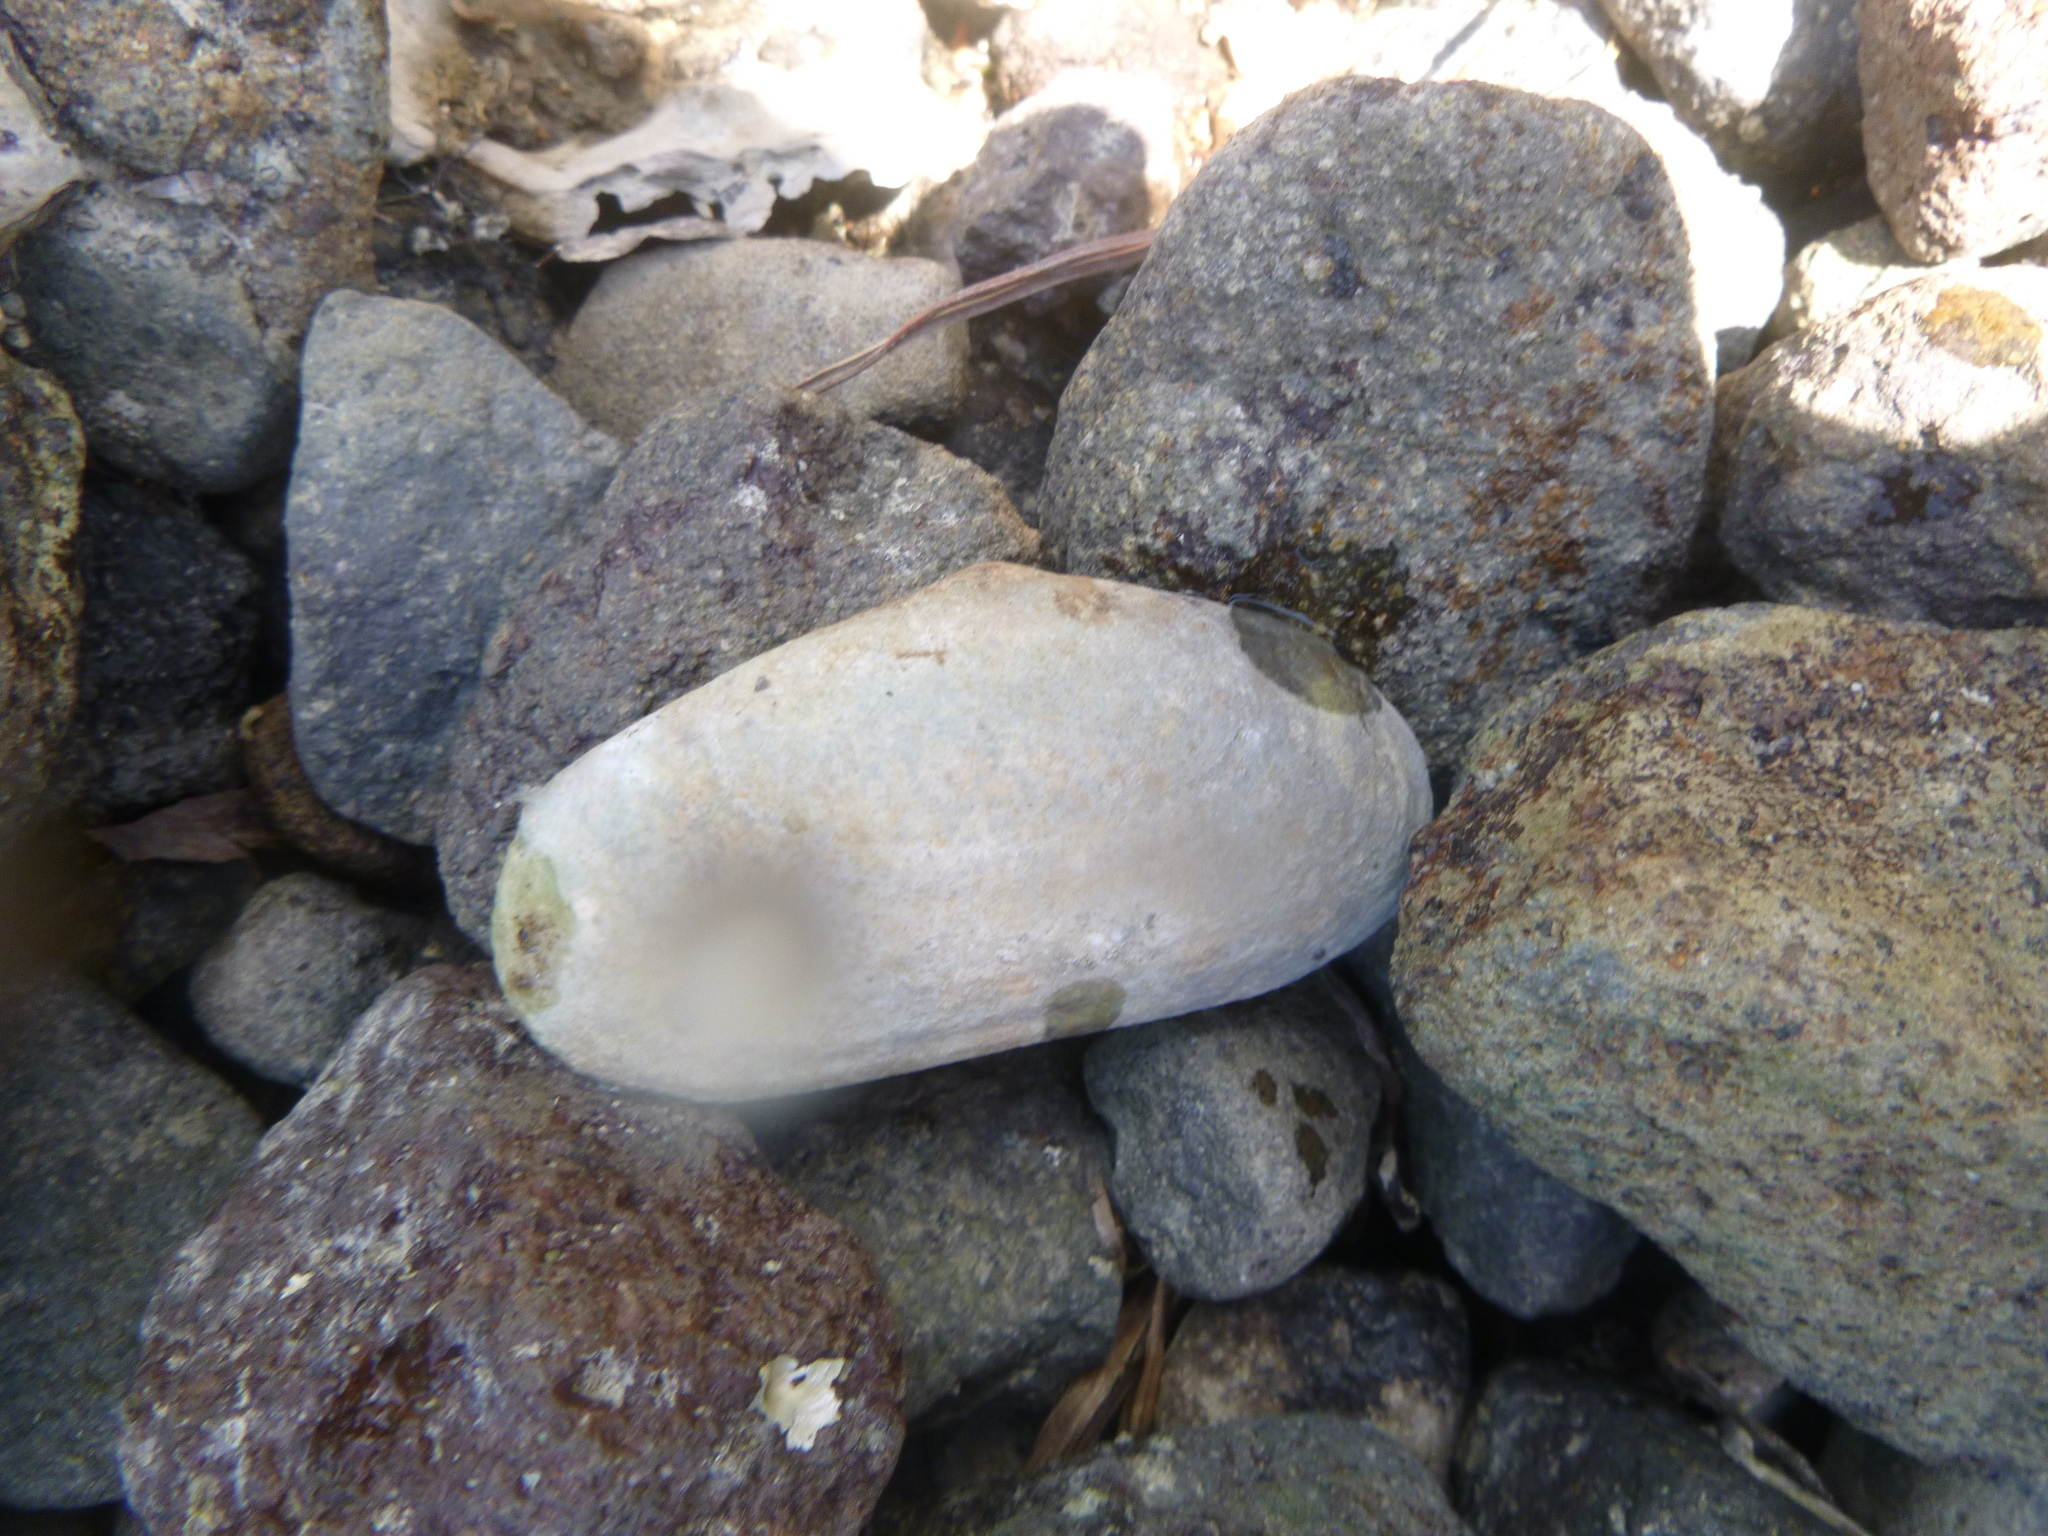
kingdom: Animalia
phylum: Mollusca
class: Bivalvia
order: Venerida
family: Mesodesmatidae
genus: Paphies
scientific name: Paphies australis
